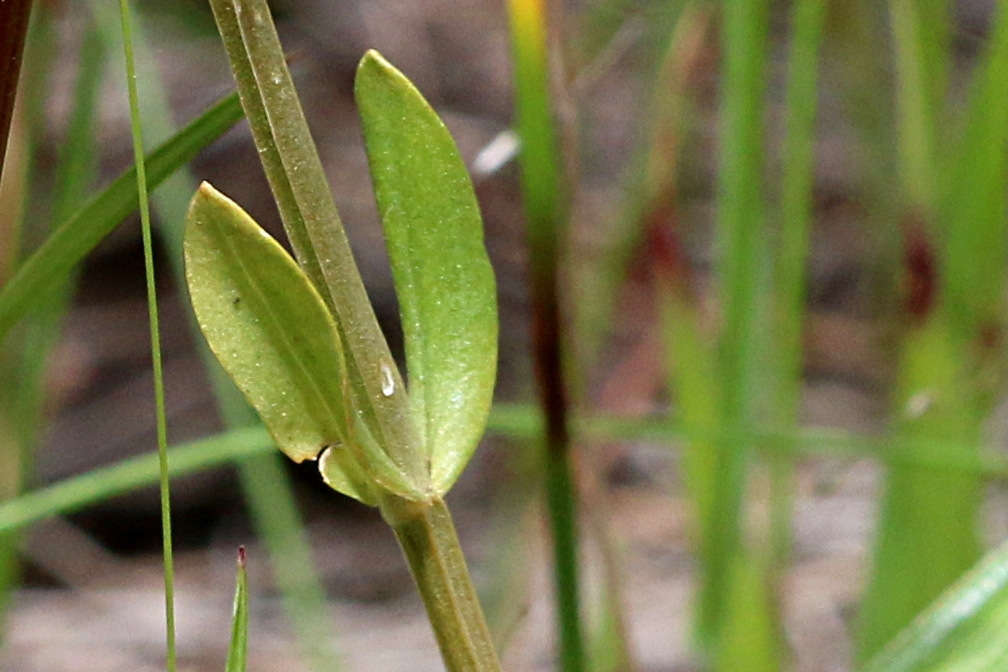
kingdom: Plantae
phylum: Tracheophyta
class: Magnoliopsida
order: Gentianales
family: Gentianaceae
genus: Centaurium
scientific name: Centaurium tenuiflorum
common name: Slender centaury
